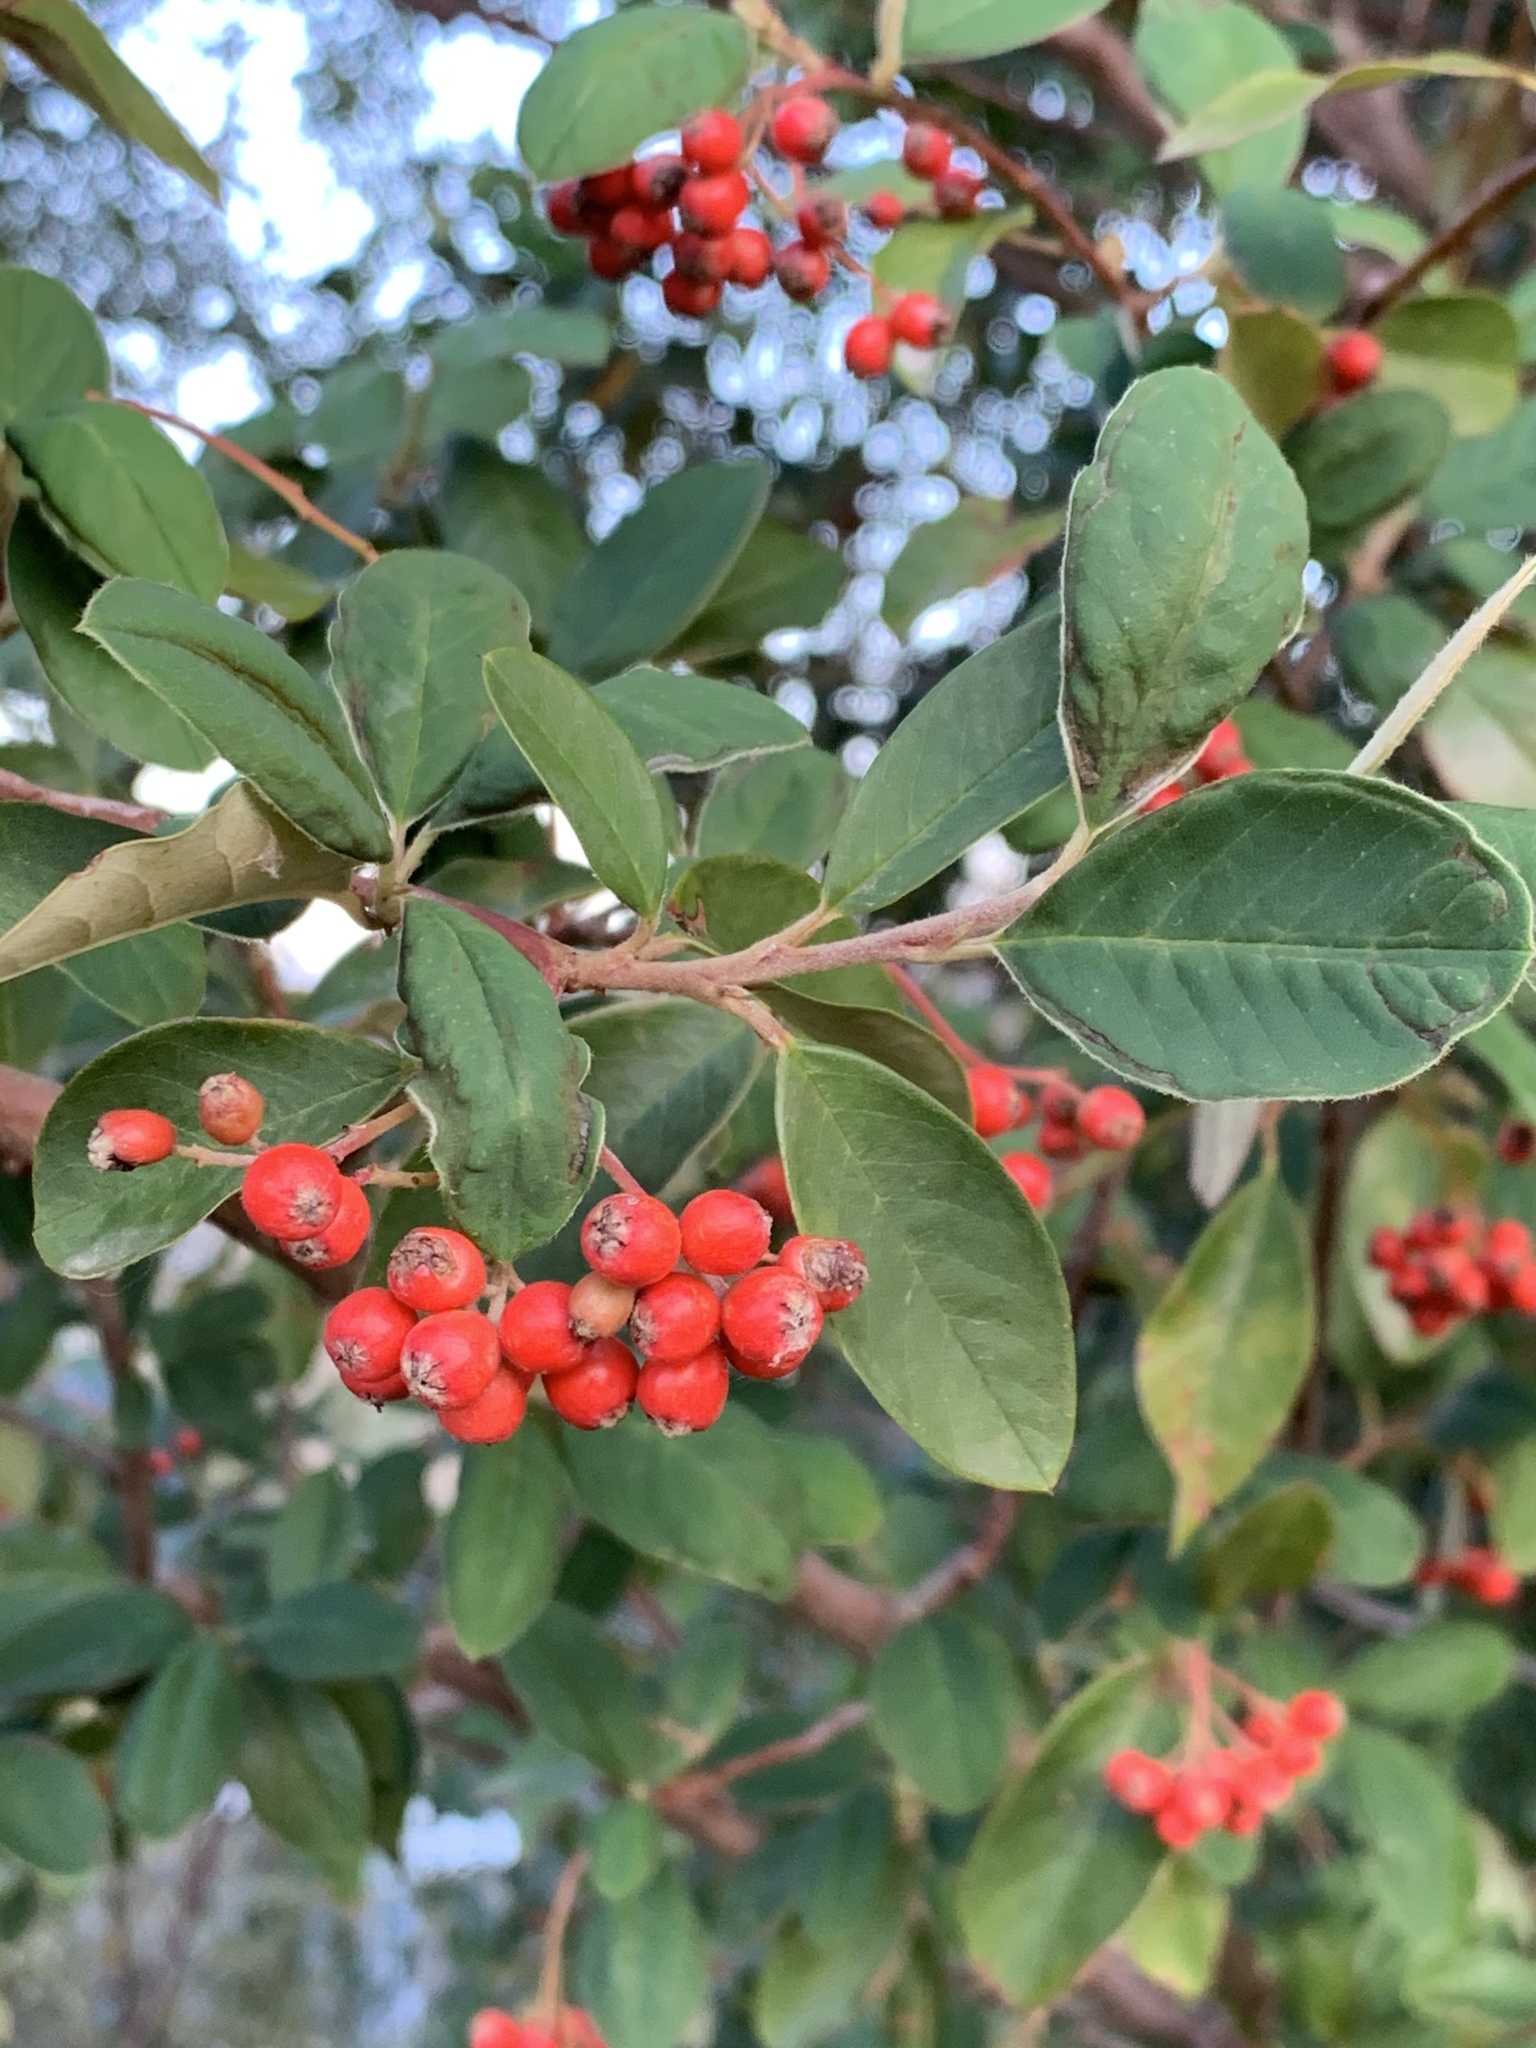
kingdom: Plantae
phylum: Tracheophyta
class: Magnoliopsida
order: Rosales
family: Rosaceae
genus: Cotoneaster
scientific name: Cotoneaster glaucophyllus
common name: Glaucous cotoneaster
